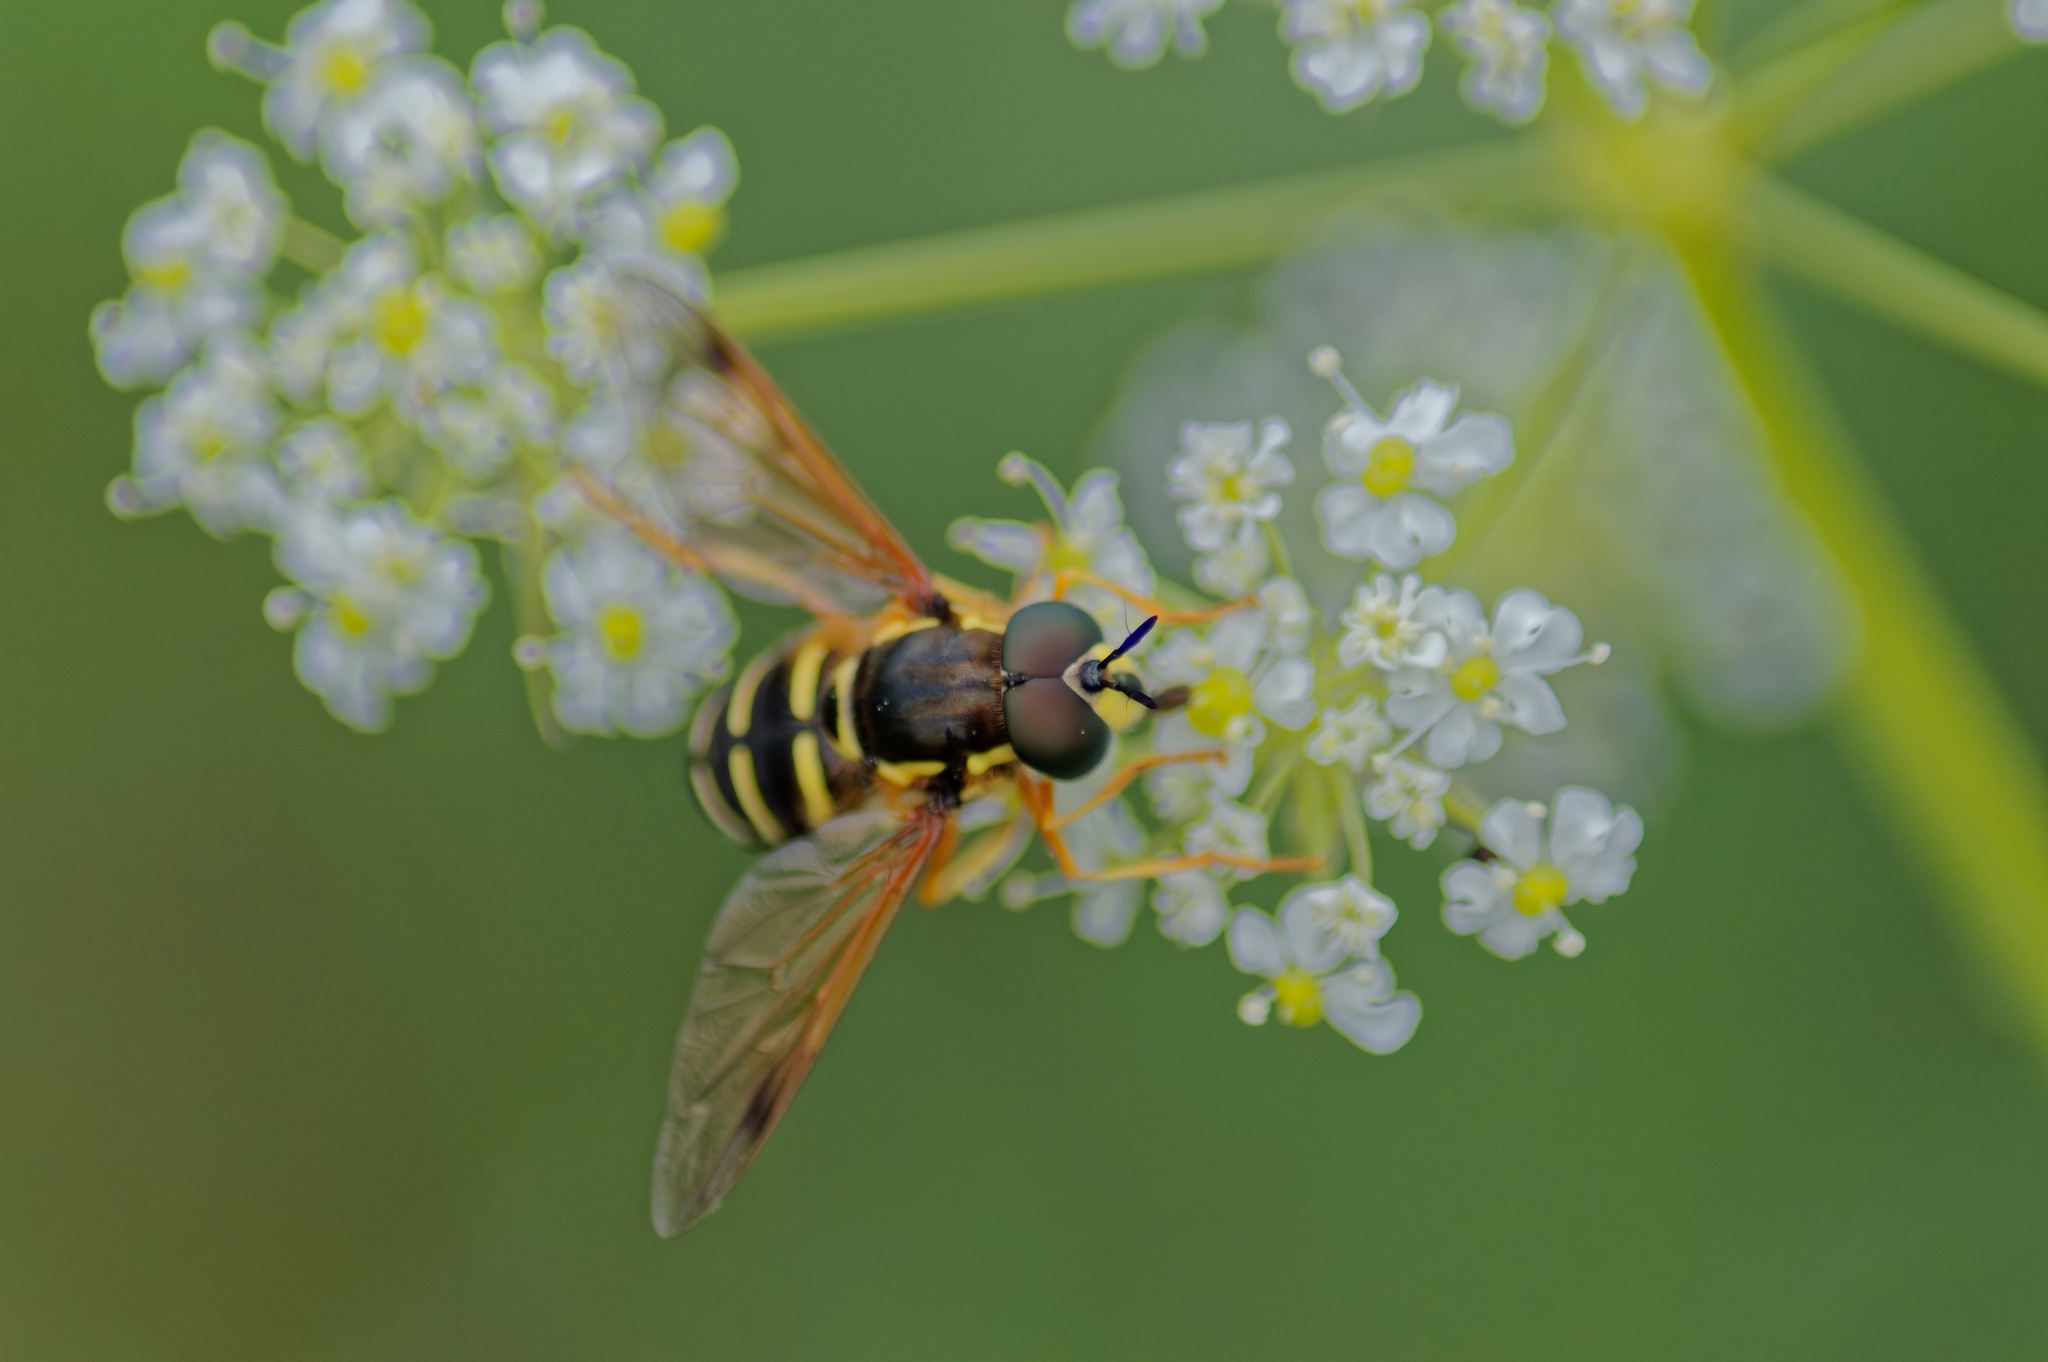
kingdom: Animalia
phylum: Arthropoda
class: Insecta
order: Diptera
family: Syrphidae
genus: Chrysotoxum
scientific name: Chrysotoxum festivum
